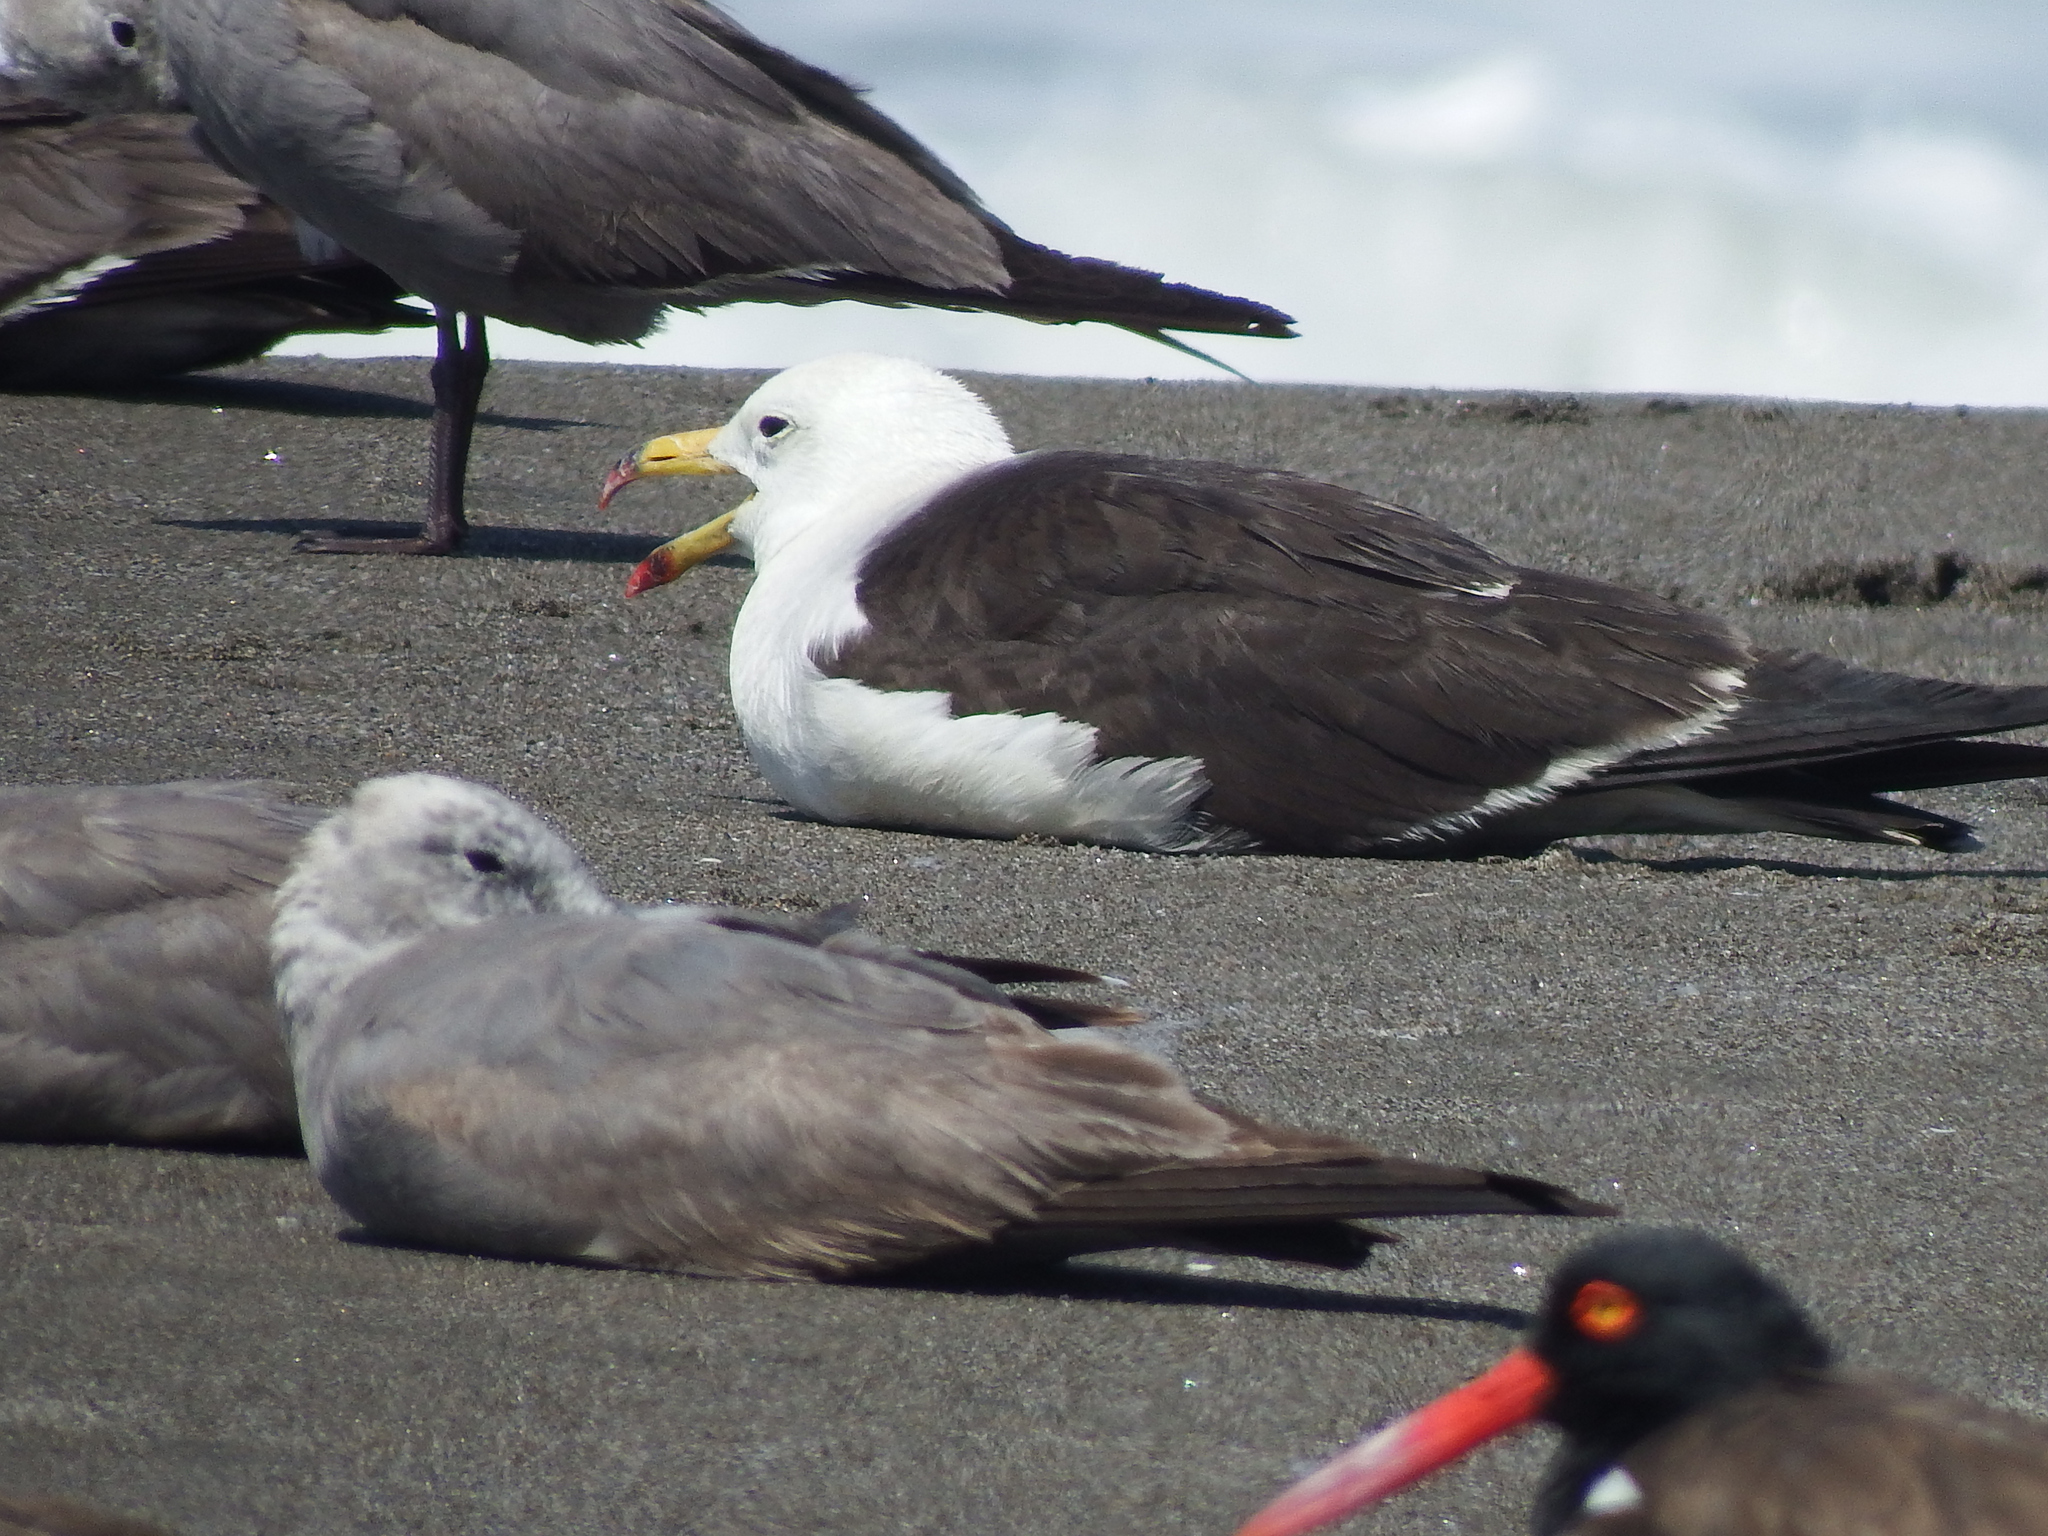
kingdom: Animalia
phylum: Chordata
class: Aves
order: Charadriiformes
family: Laridae
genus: Larus
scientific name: Larus belcheri
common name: Belcher's gull
